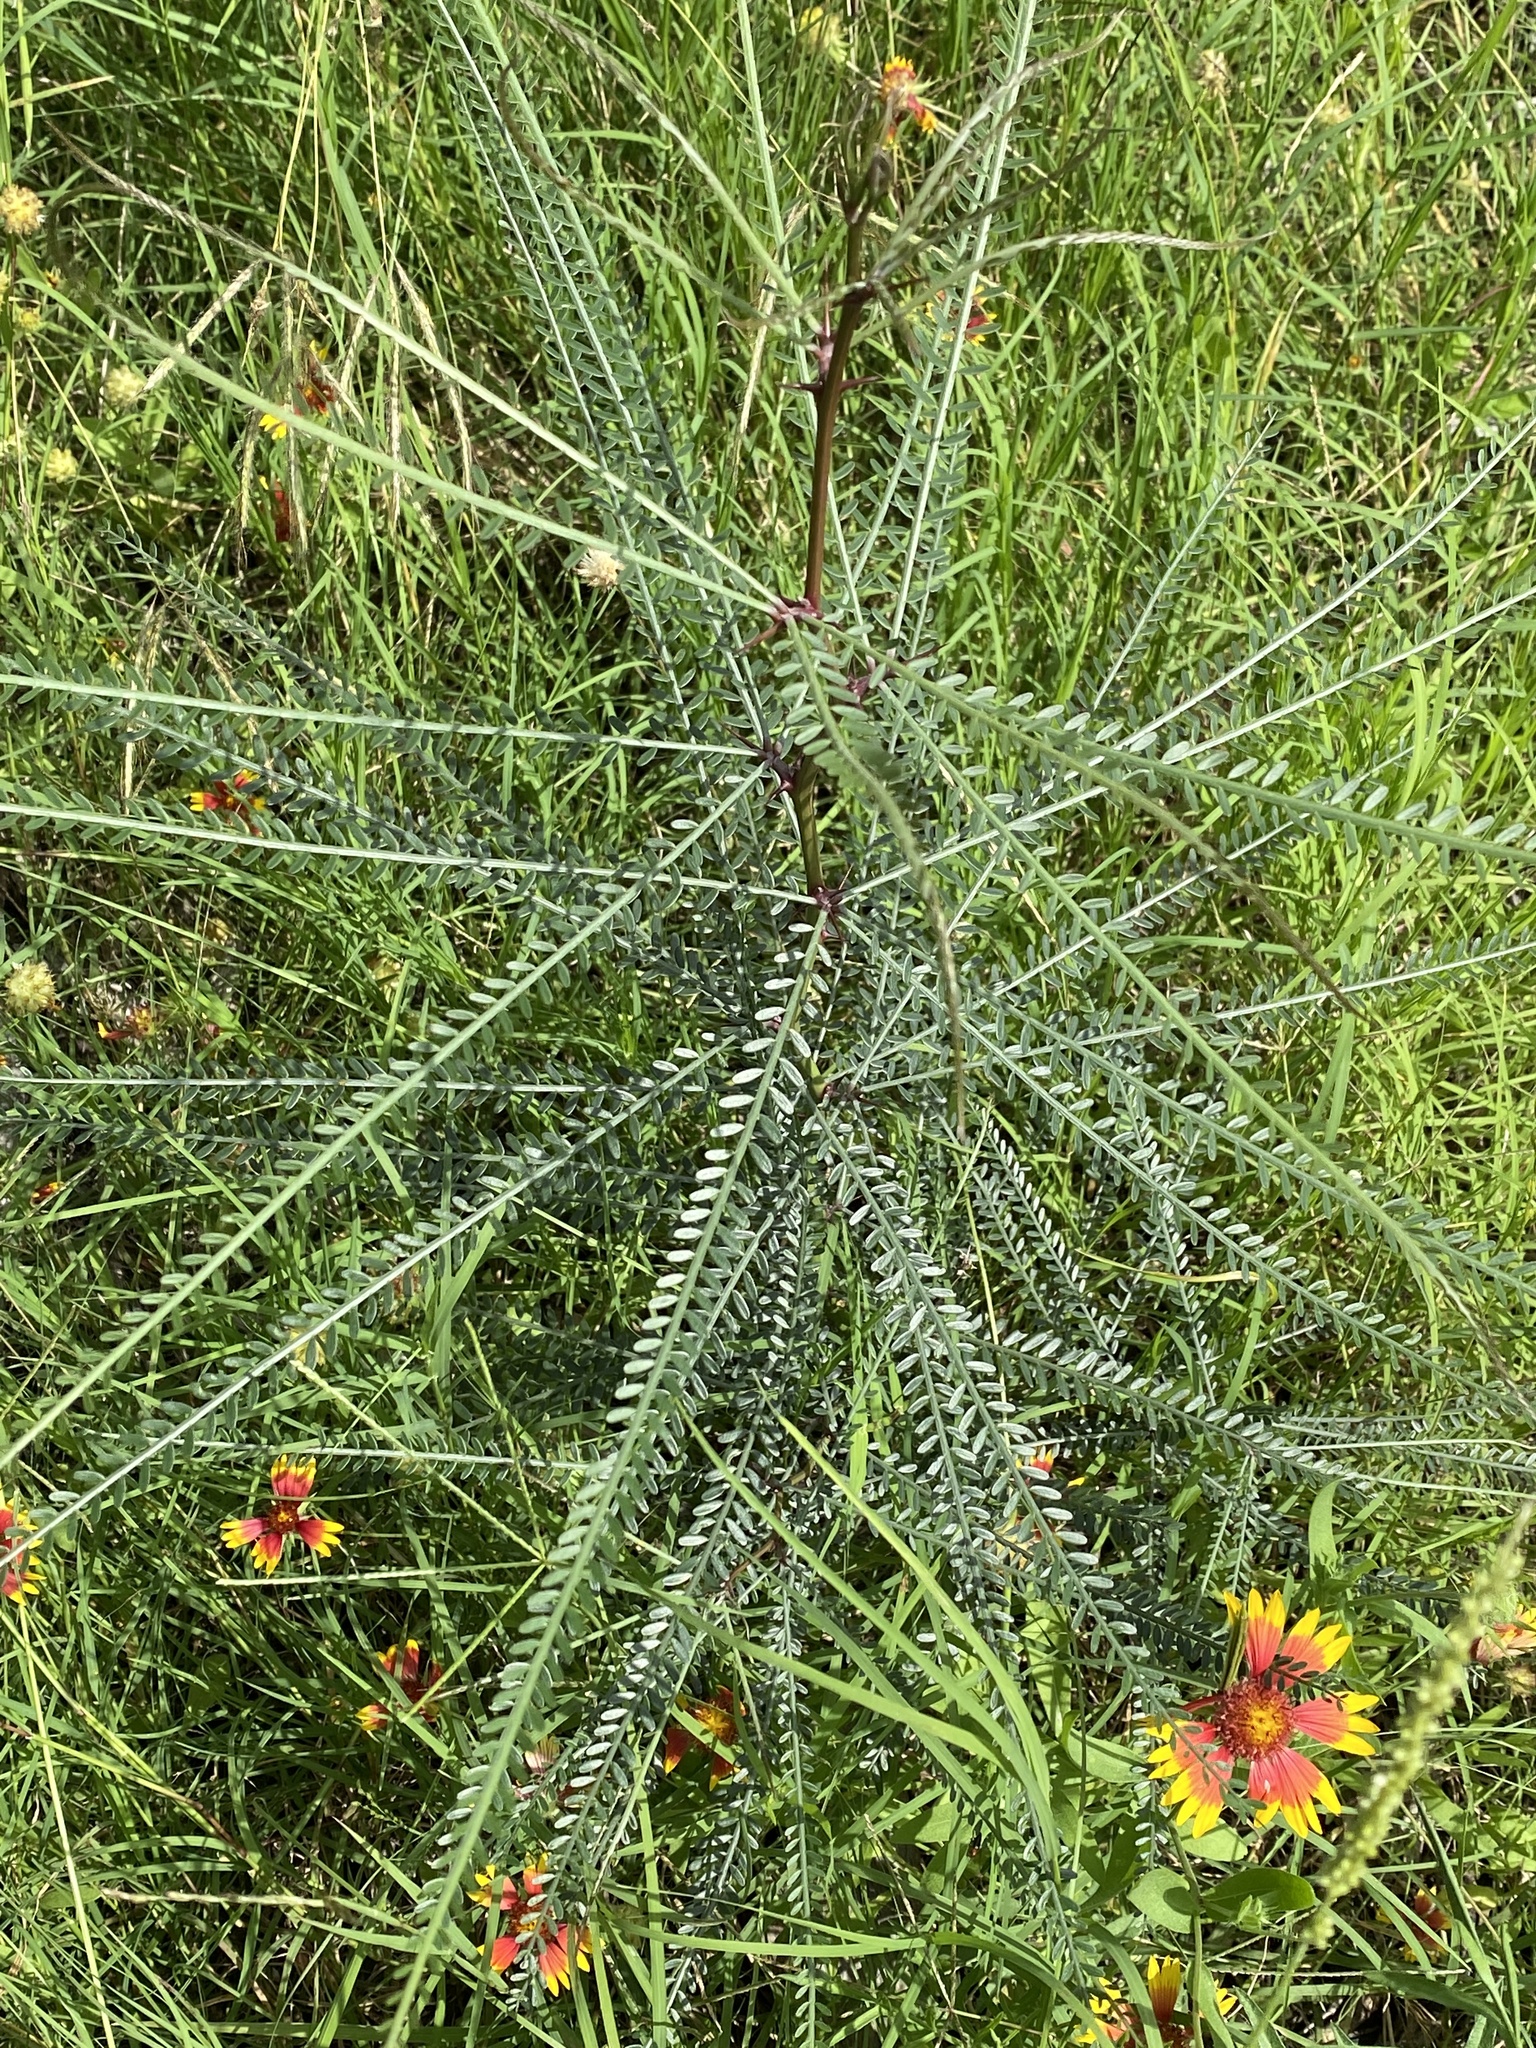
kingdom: Plantae
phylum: Tracheophyta
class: Magnoliopsida
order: Fabales
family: Fabaceae
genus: Parkinsonia
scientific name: Parkinsonia aculeata
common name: Jerusalem thorn
